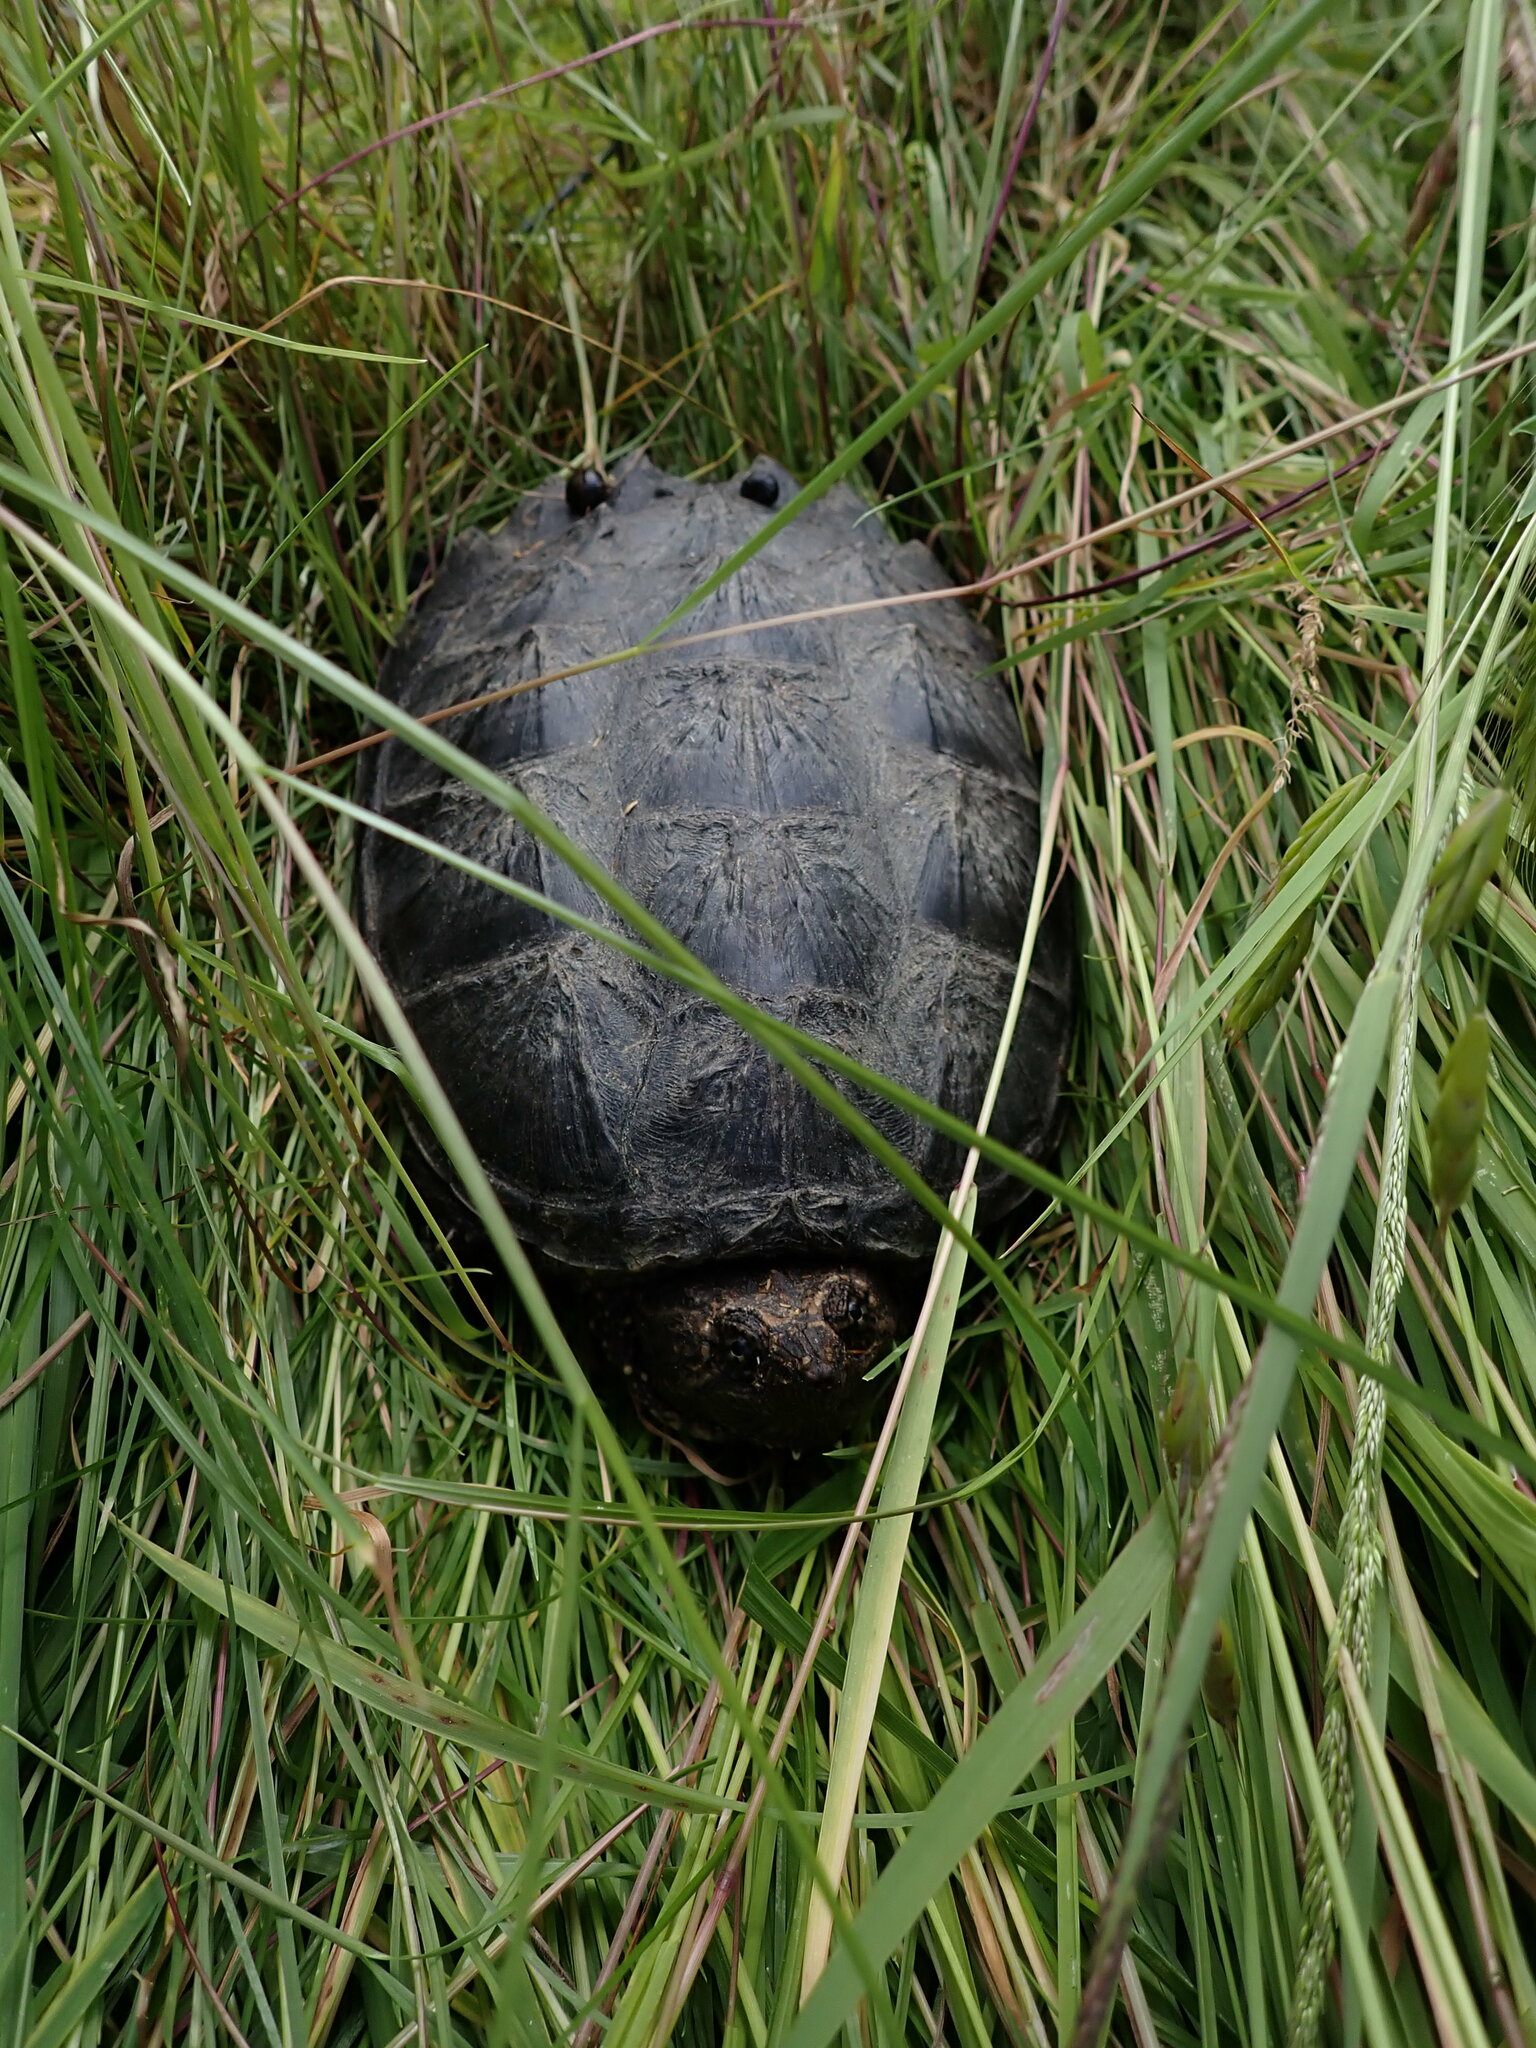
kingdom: Animalia
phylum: Chordata
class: Testudines
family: Chelydridae
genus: Chelydra
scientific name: Chelydra serpentina
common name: Common snapping turtle
